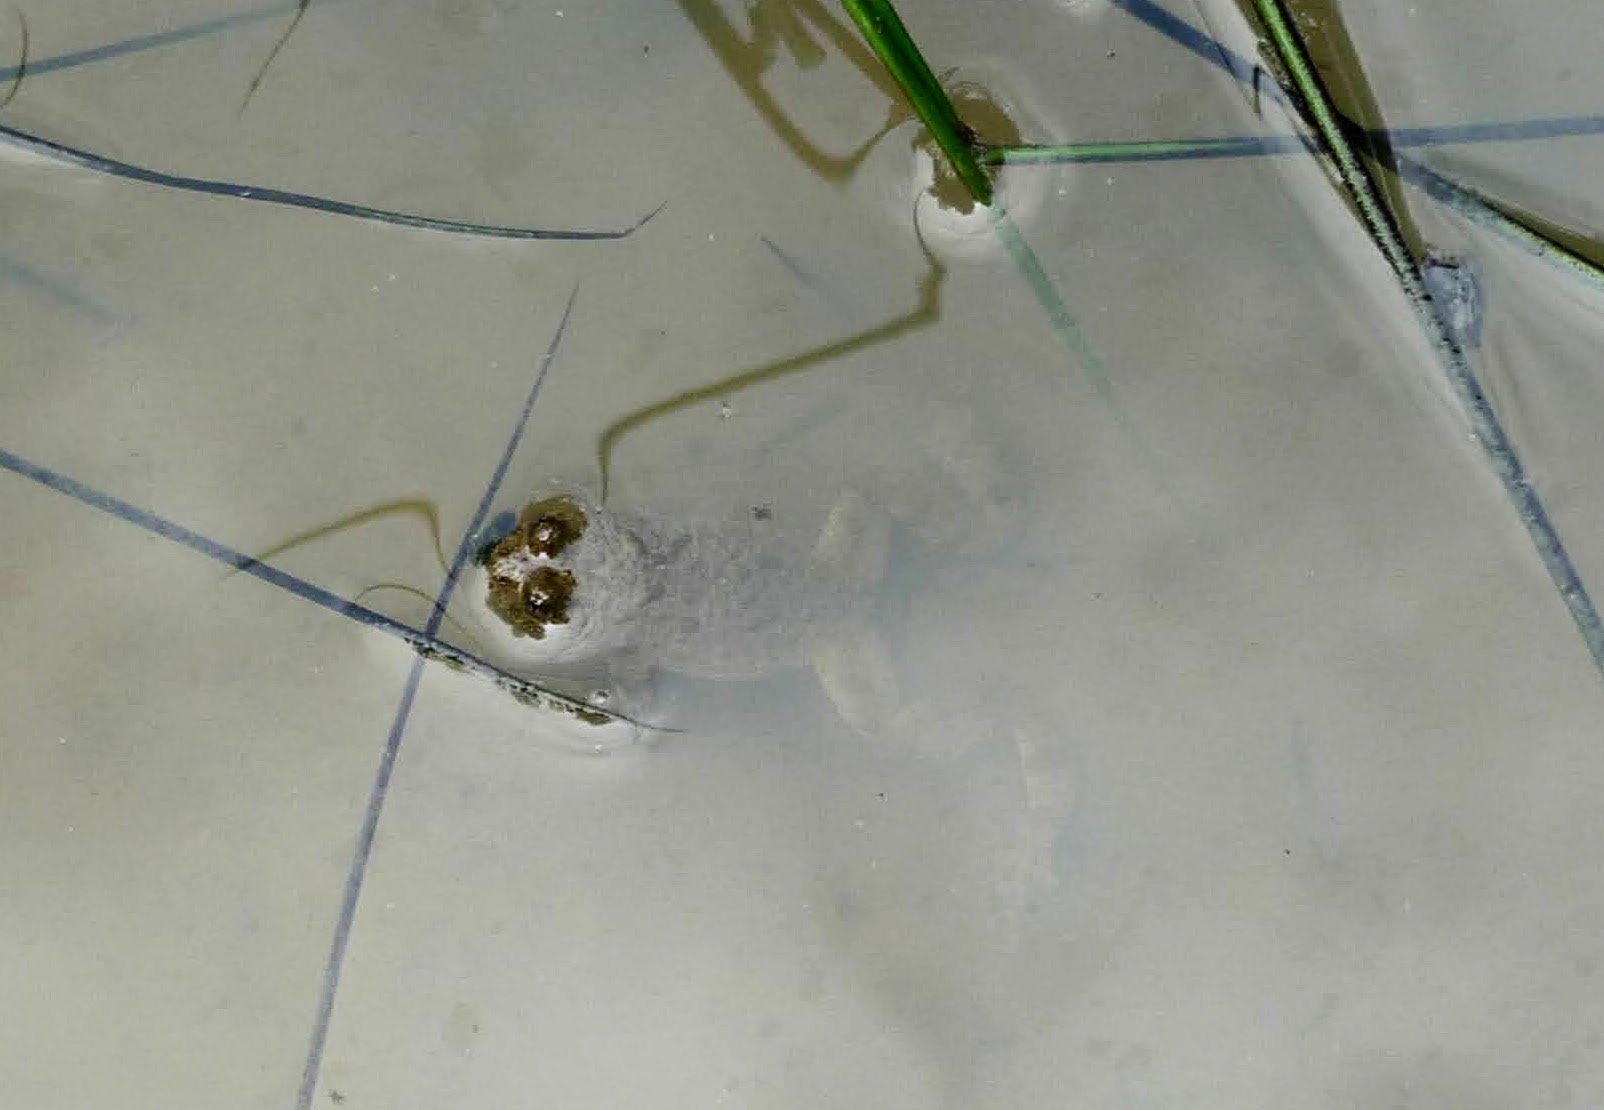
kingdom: Animalia
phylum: Chordata
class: Amphibia
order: Anura
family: Bombinatoridae
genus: Bombina
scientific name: Bombina variegata
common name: Yellow-bellied toad
